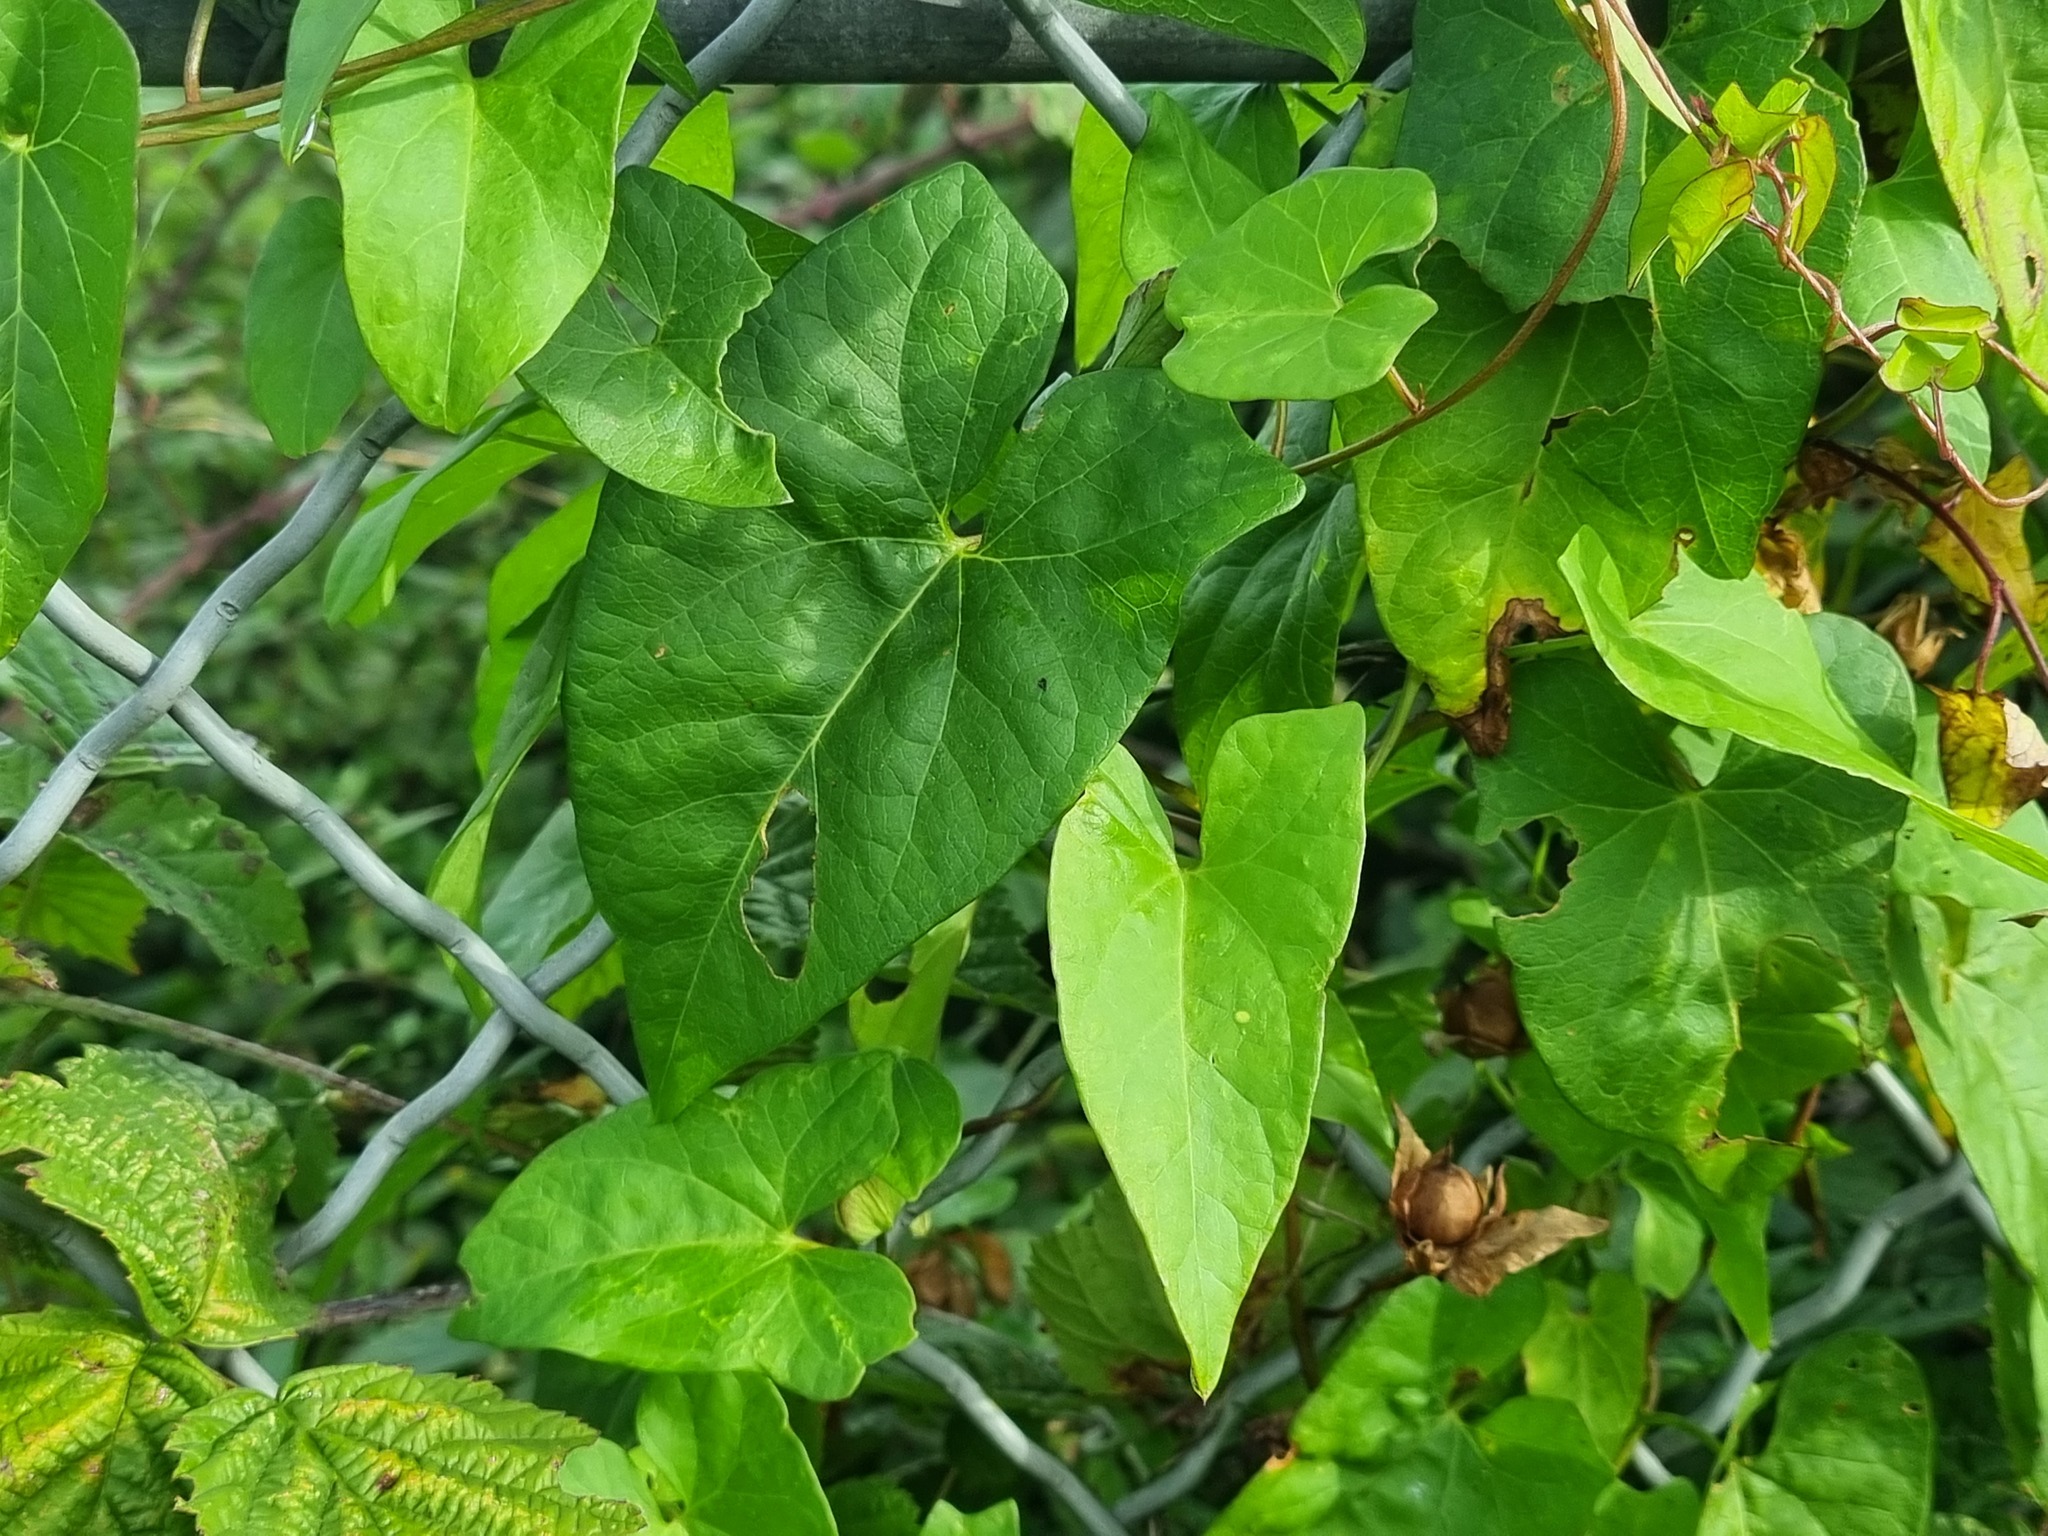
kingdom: Plantae
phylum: Tracheophyta
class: Magnoliopsida
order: Solanales
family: Convolvulaceae
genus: Calystegia
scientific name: Calystegia sepium
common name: Hedge bindweed
